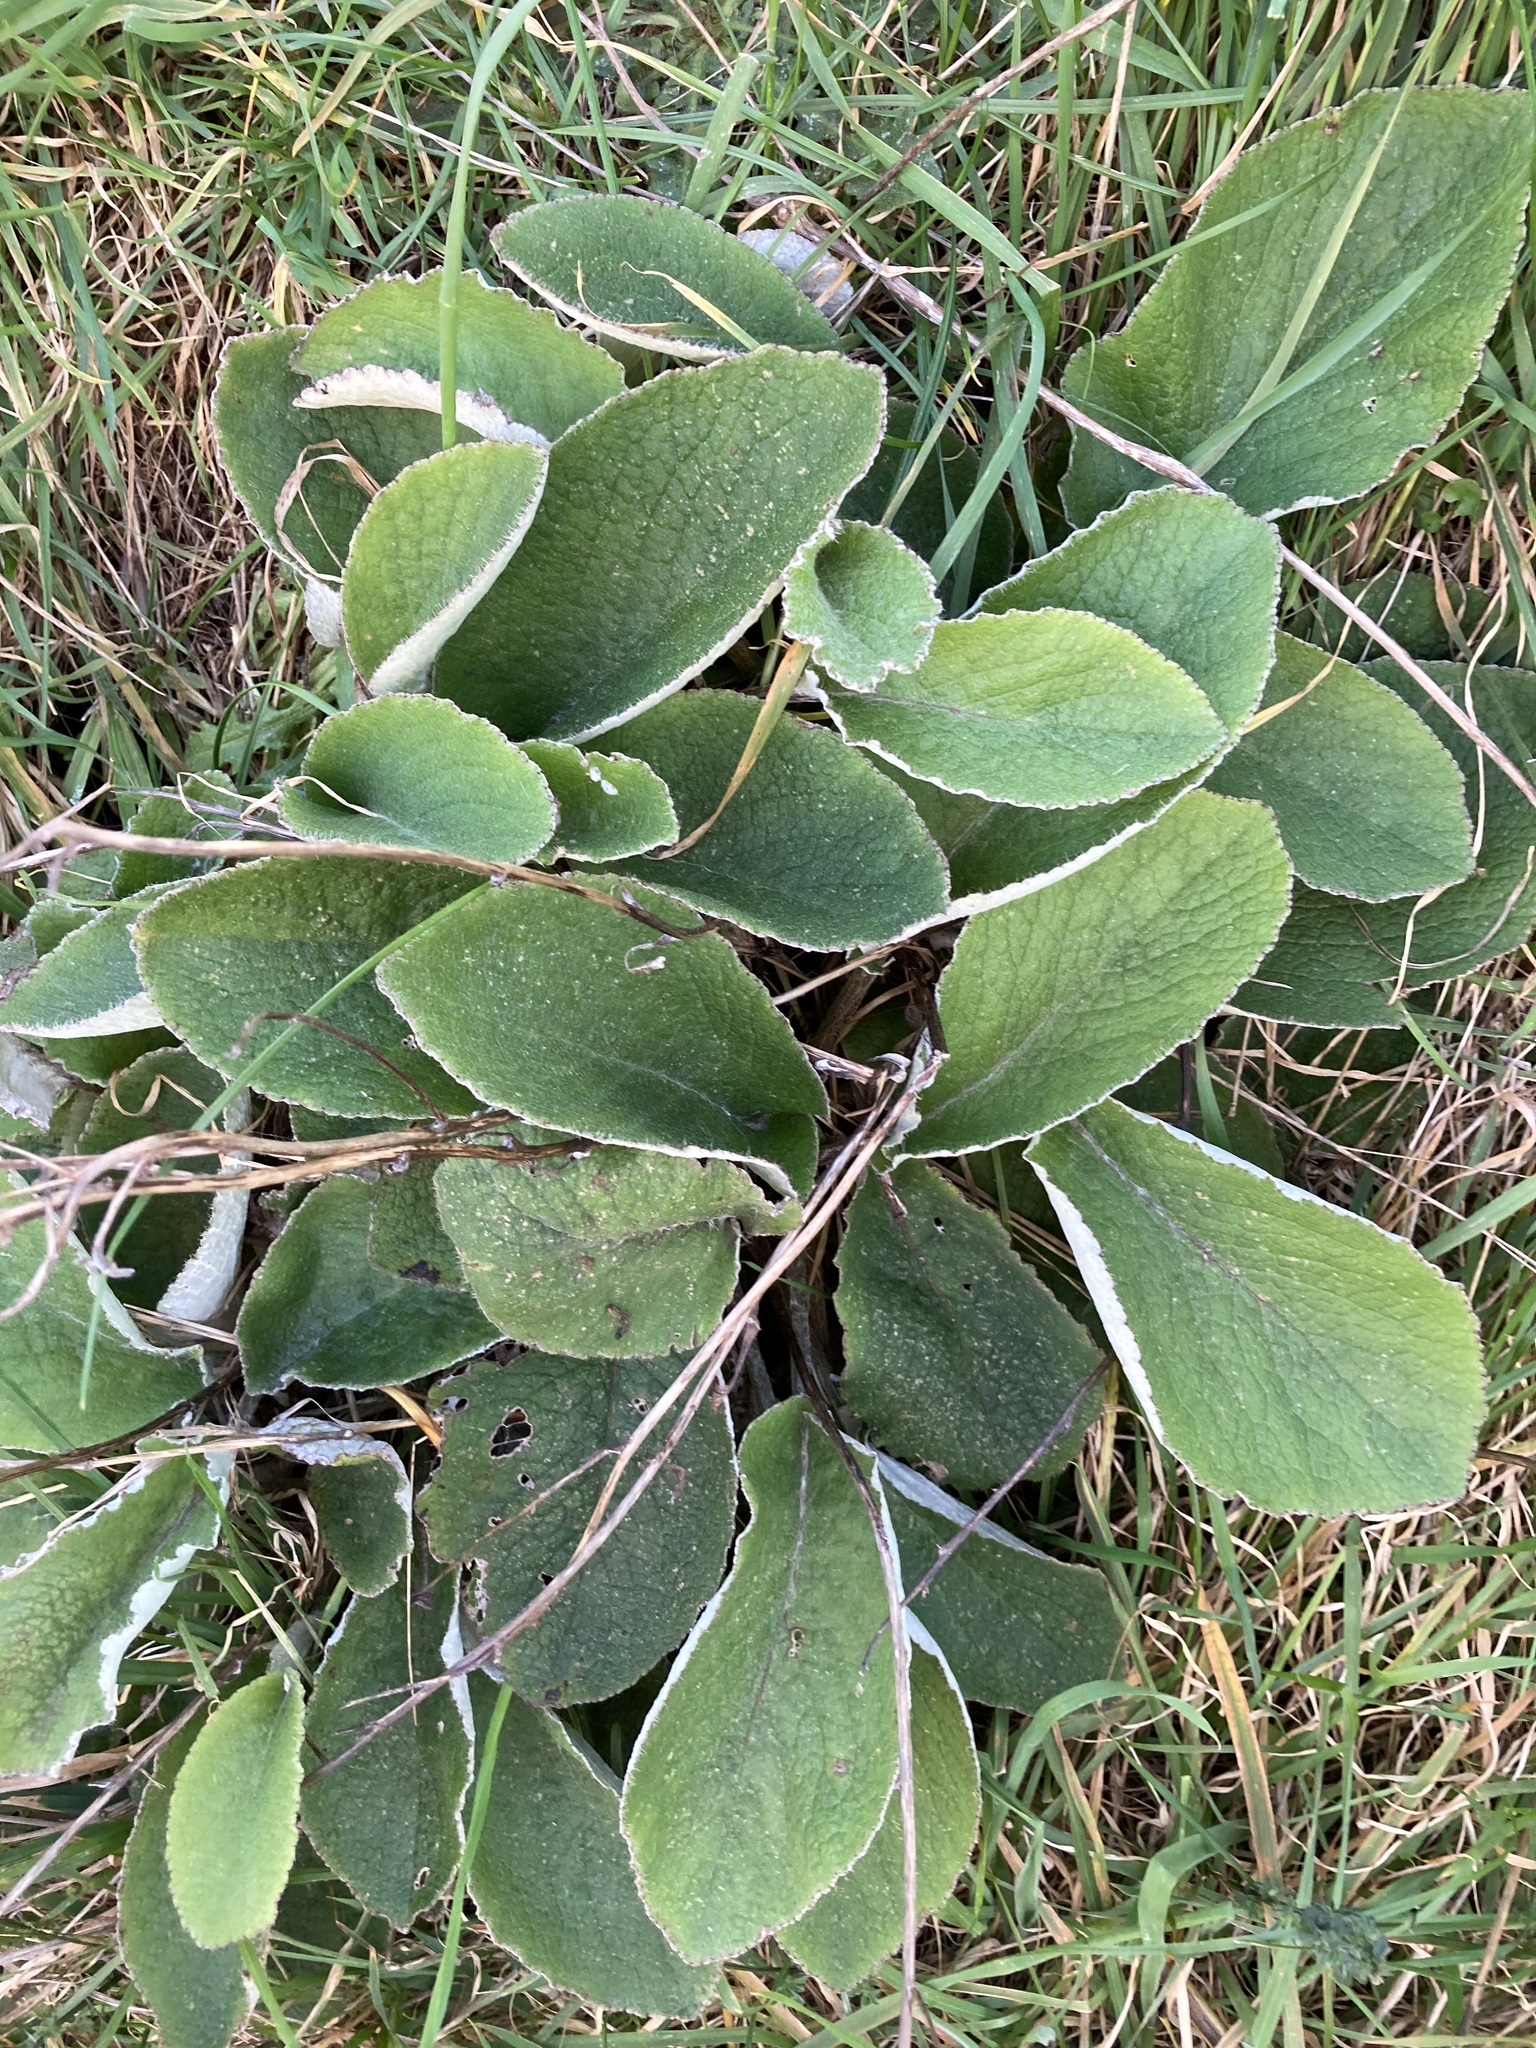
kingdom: Plantae
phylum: Tracheophyta
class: Magnoliopsida
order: Asterales
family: Asteraceae
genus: Brachyglottis
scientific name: Brachyglottis lagopus
